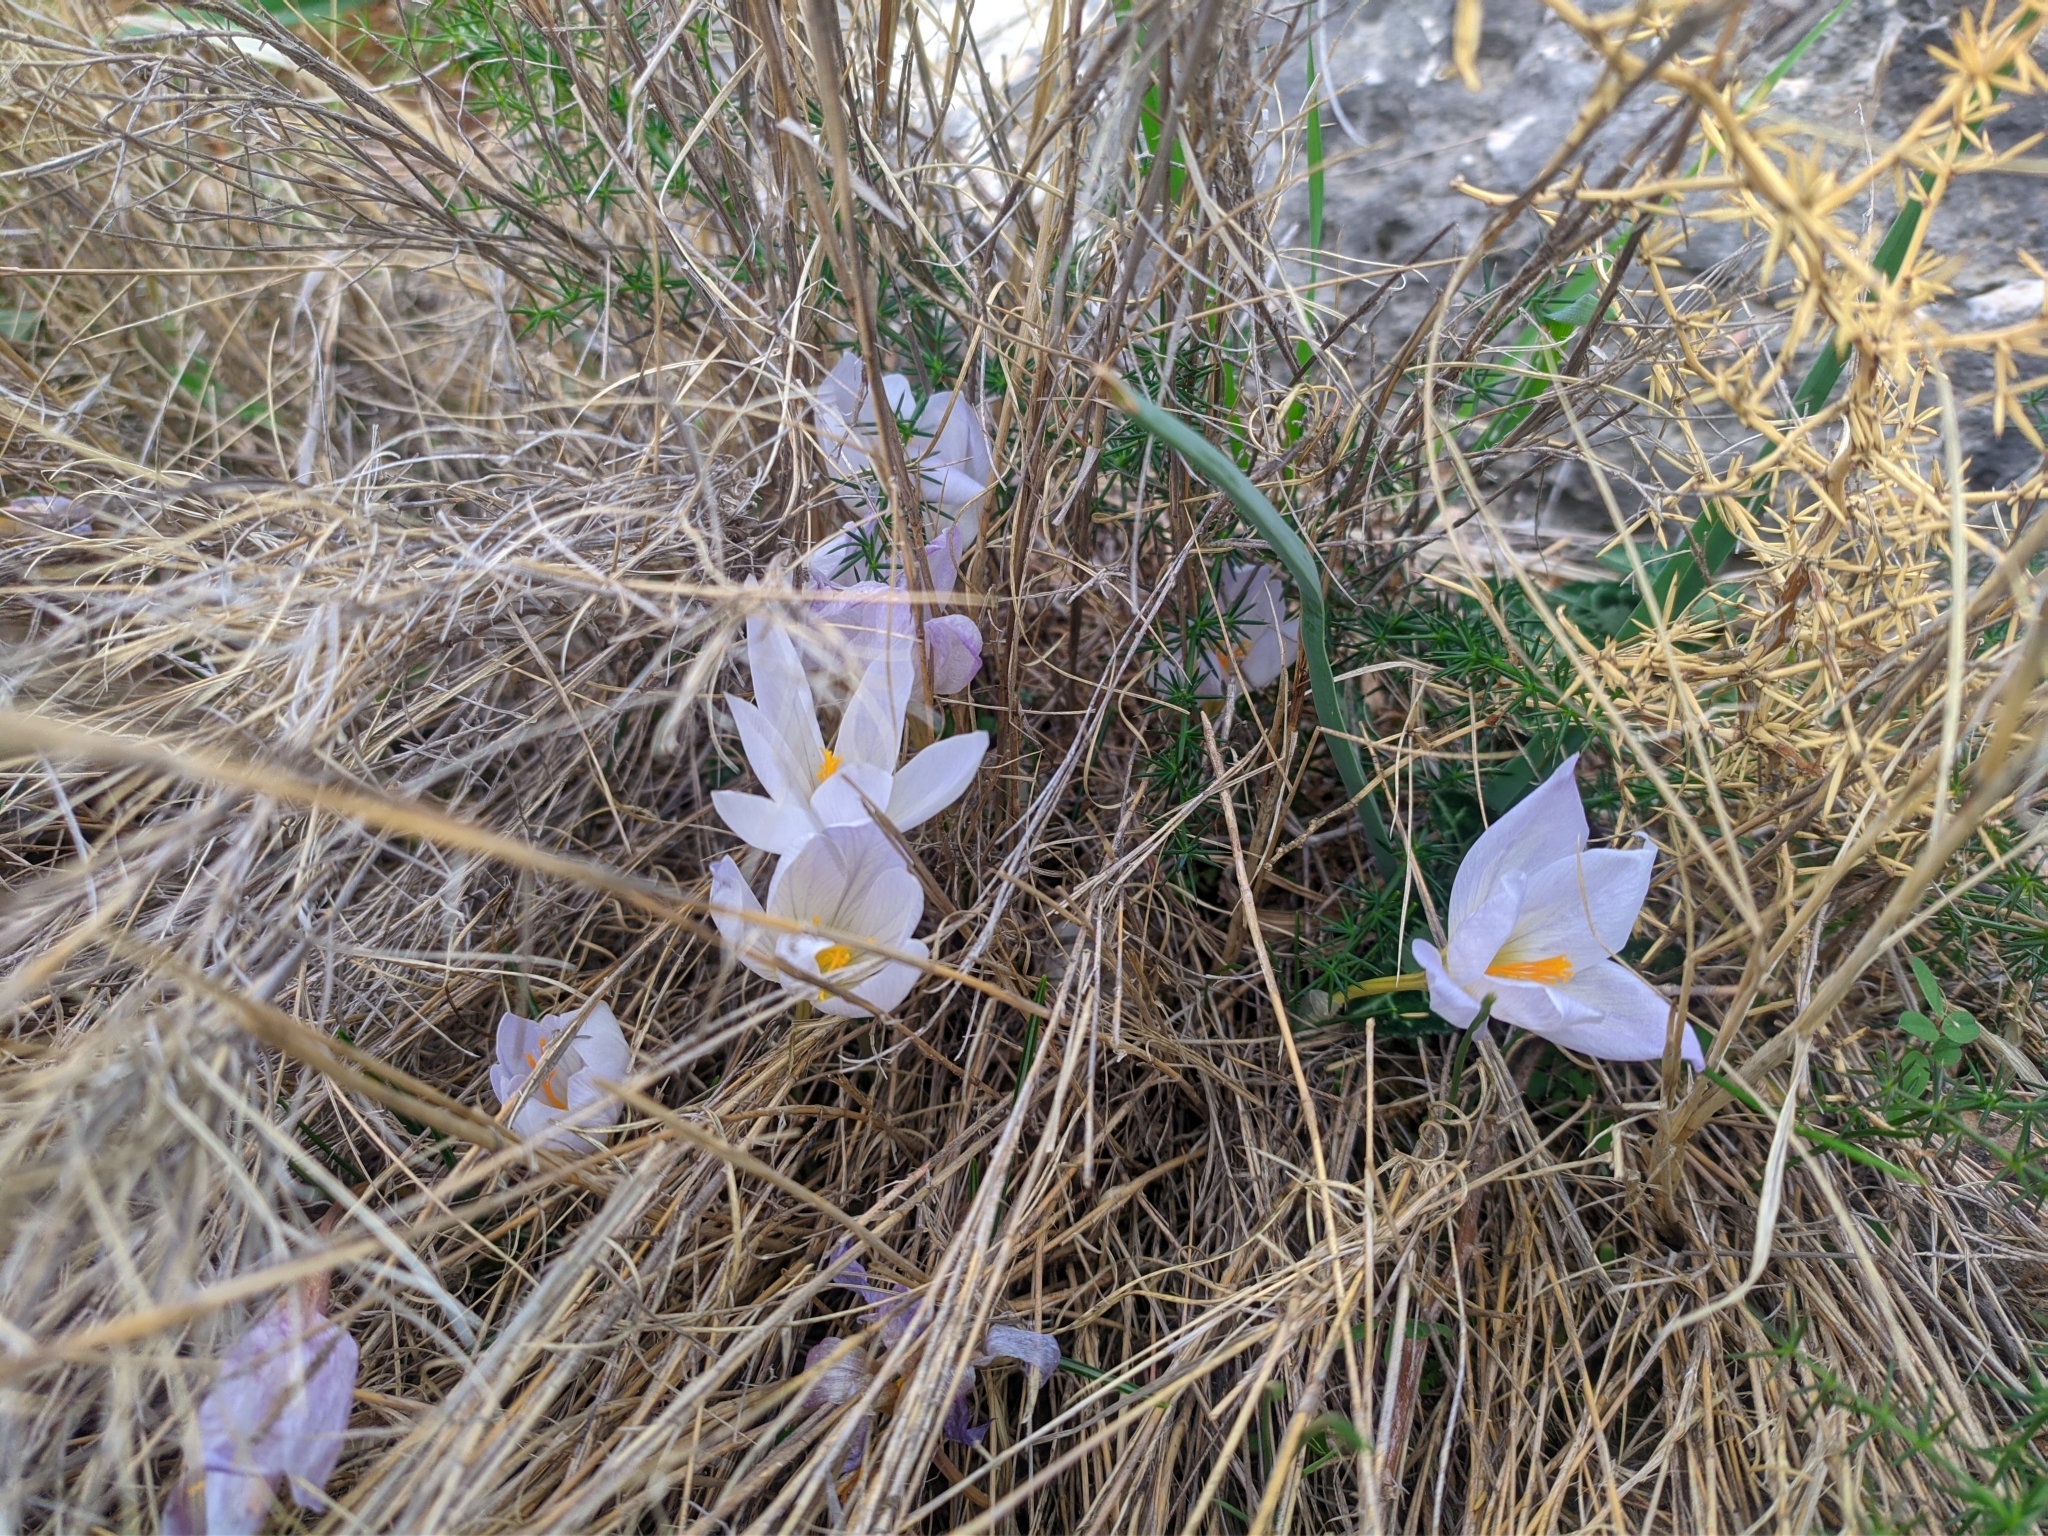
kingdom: Plantae
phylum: Tracheophyta
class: Liliopsida
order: Asparagales
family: Iridaceae
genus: Crocus
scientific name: Crocus mazziaricus
